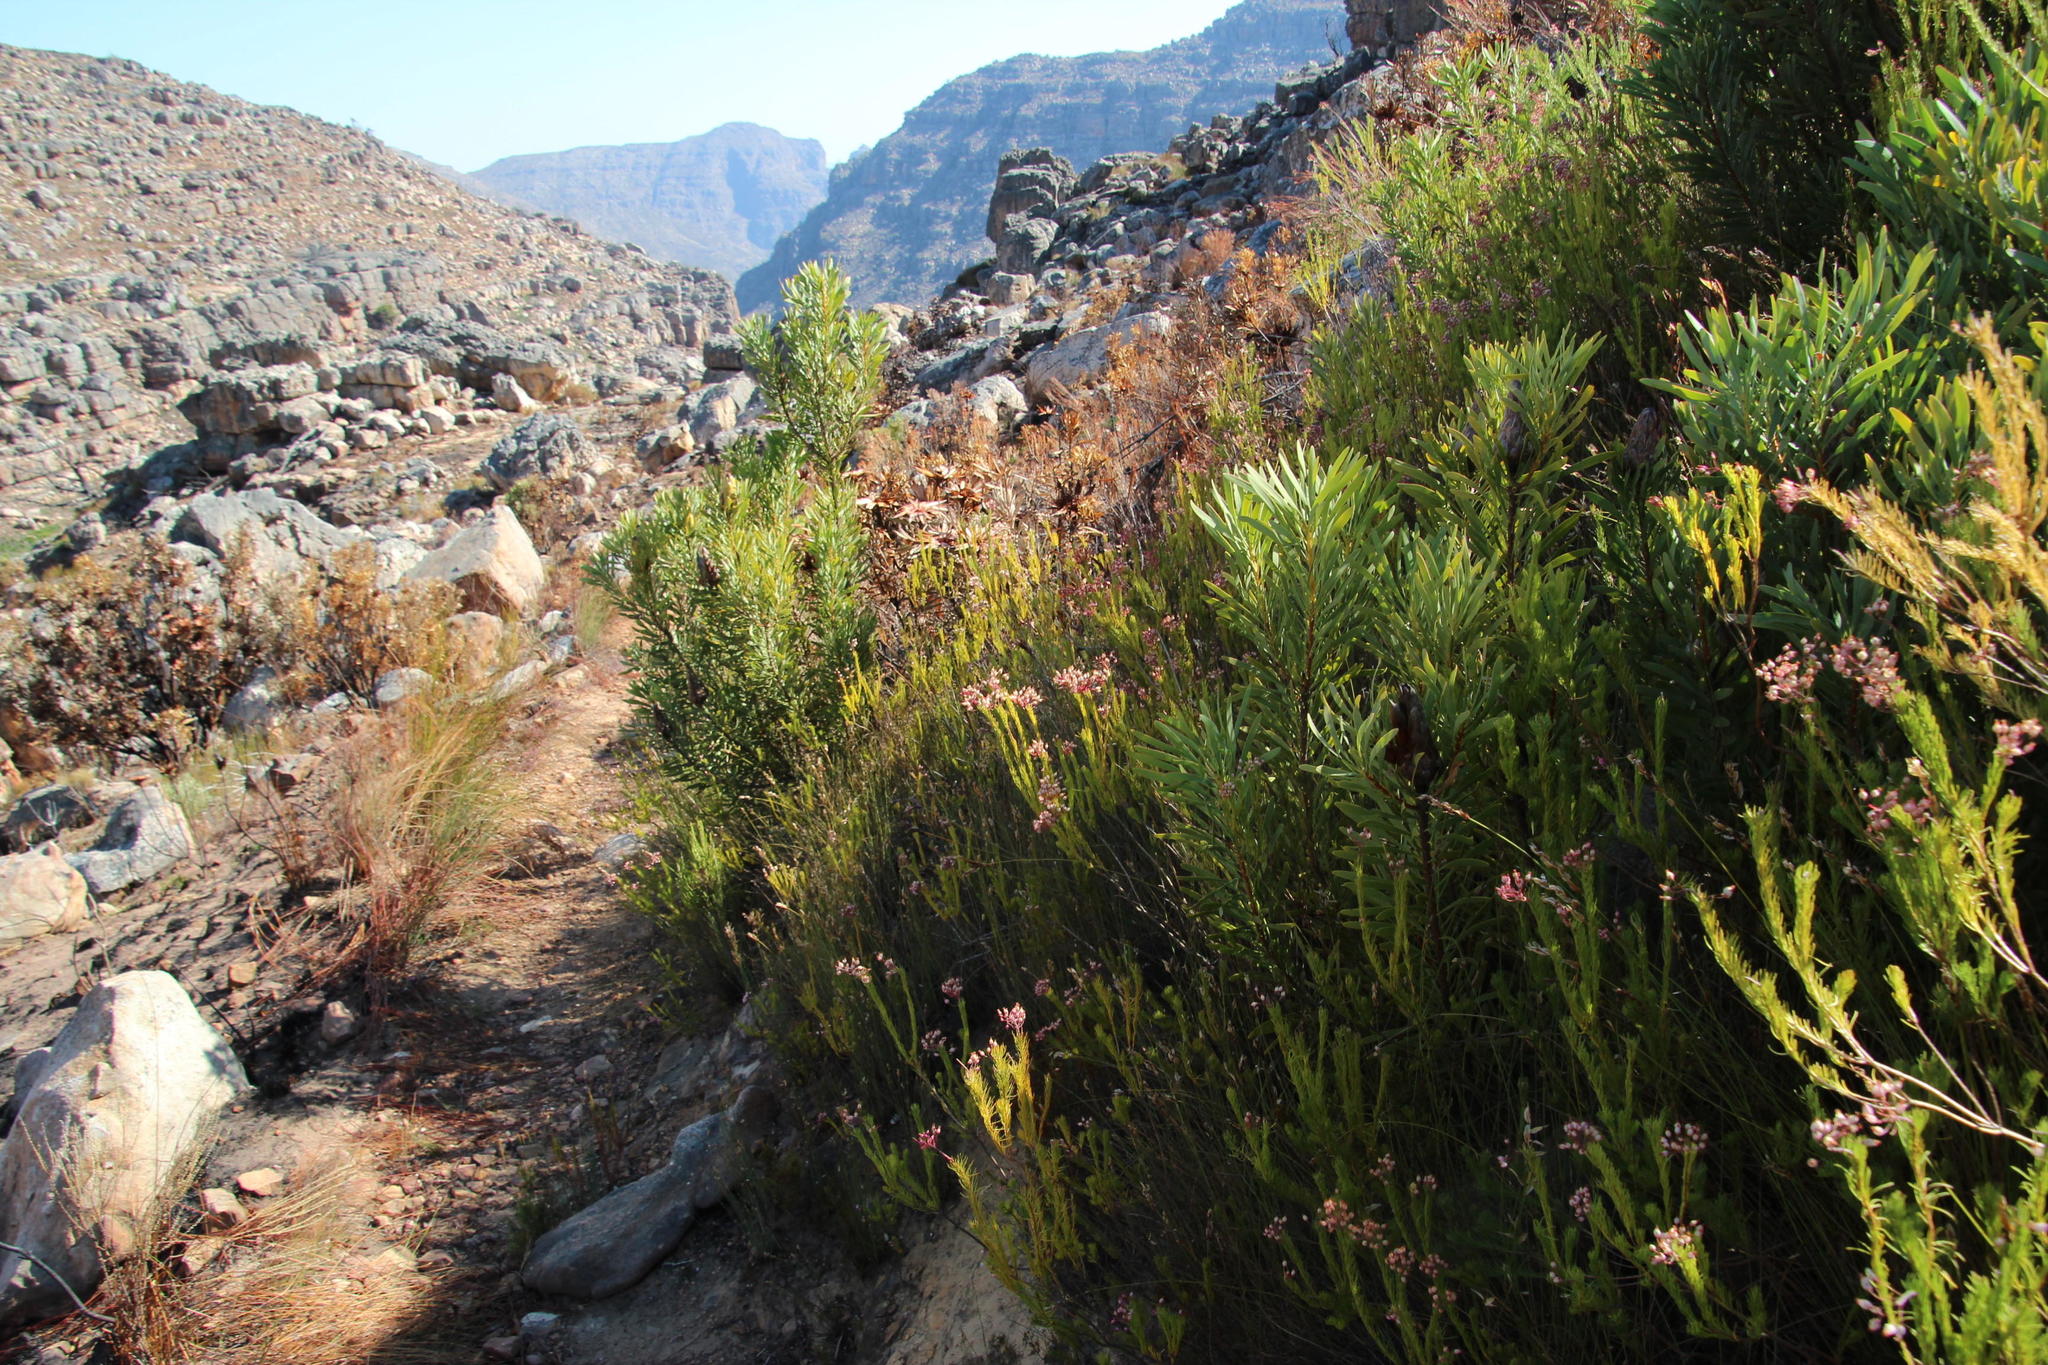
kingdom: Plantae
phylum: Tracheophyta
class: Magnoliopsida
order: Proteales
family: Proteaceae
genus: Protea
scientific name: Protea repens
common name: Sugarbush
